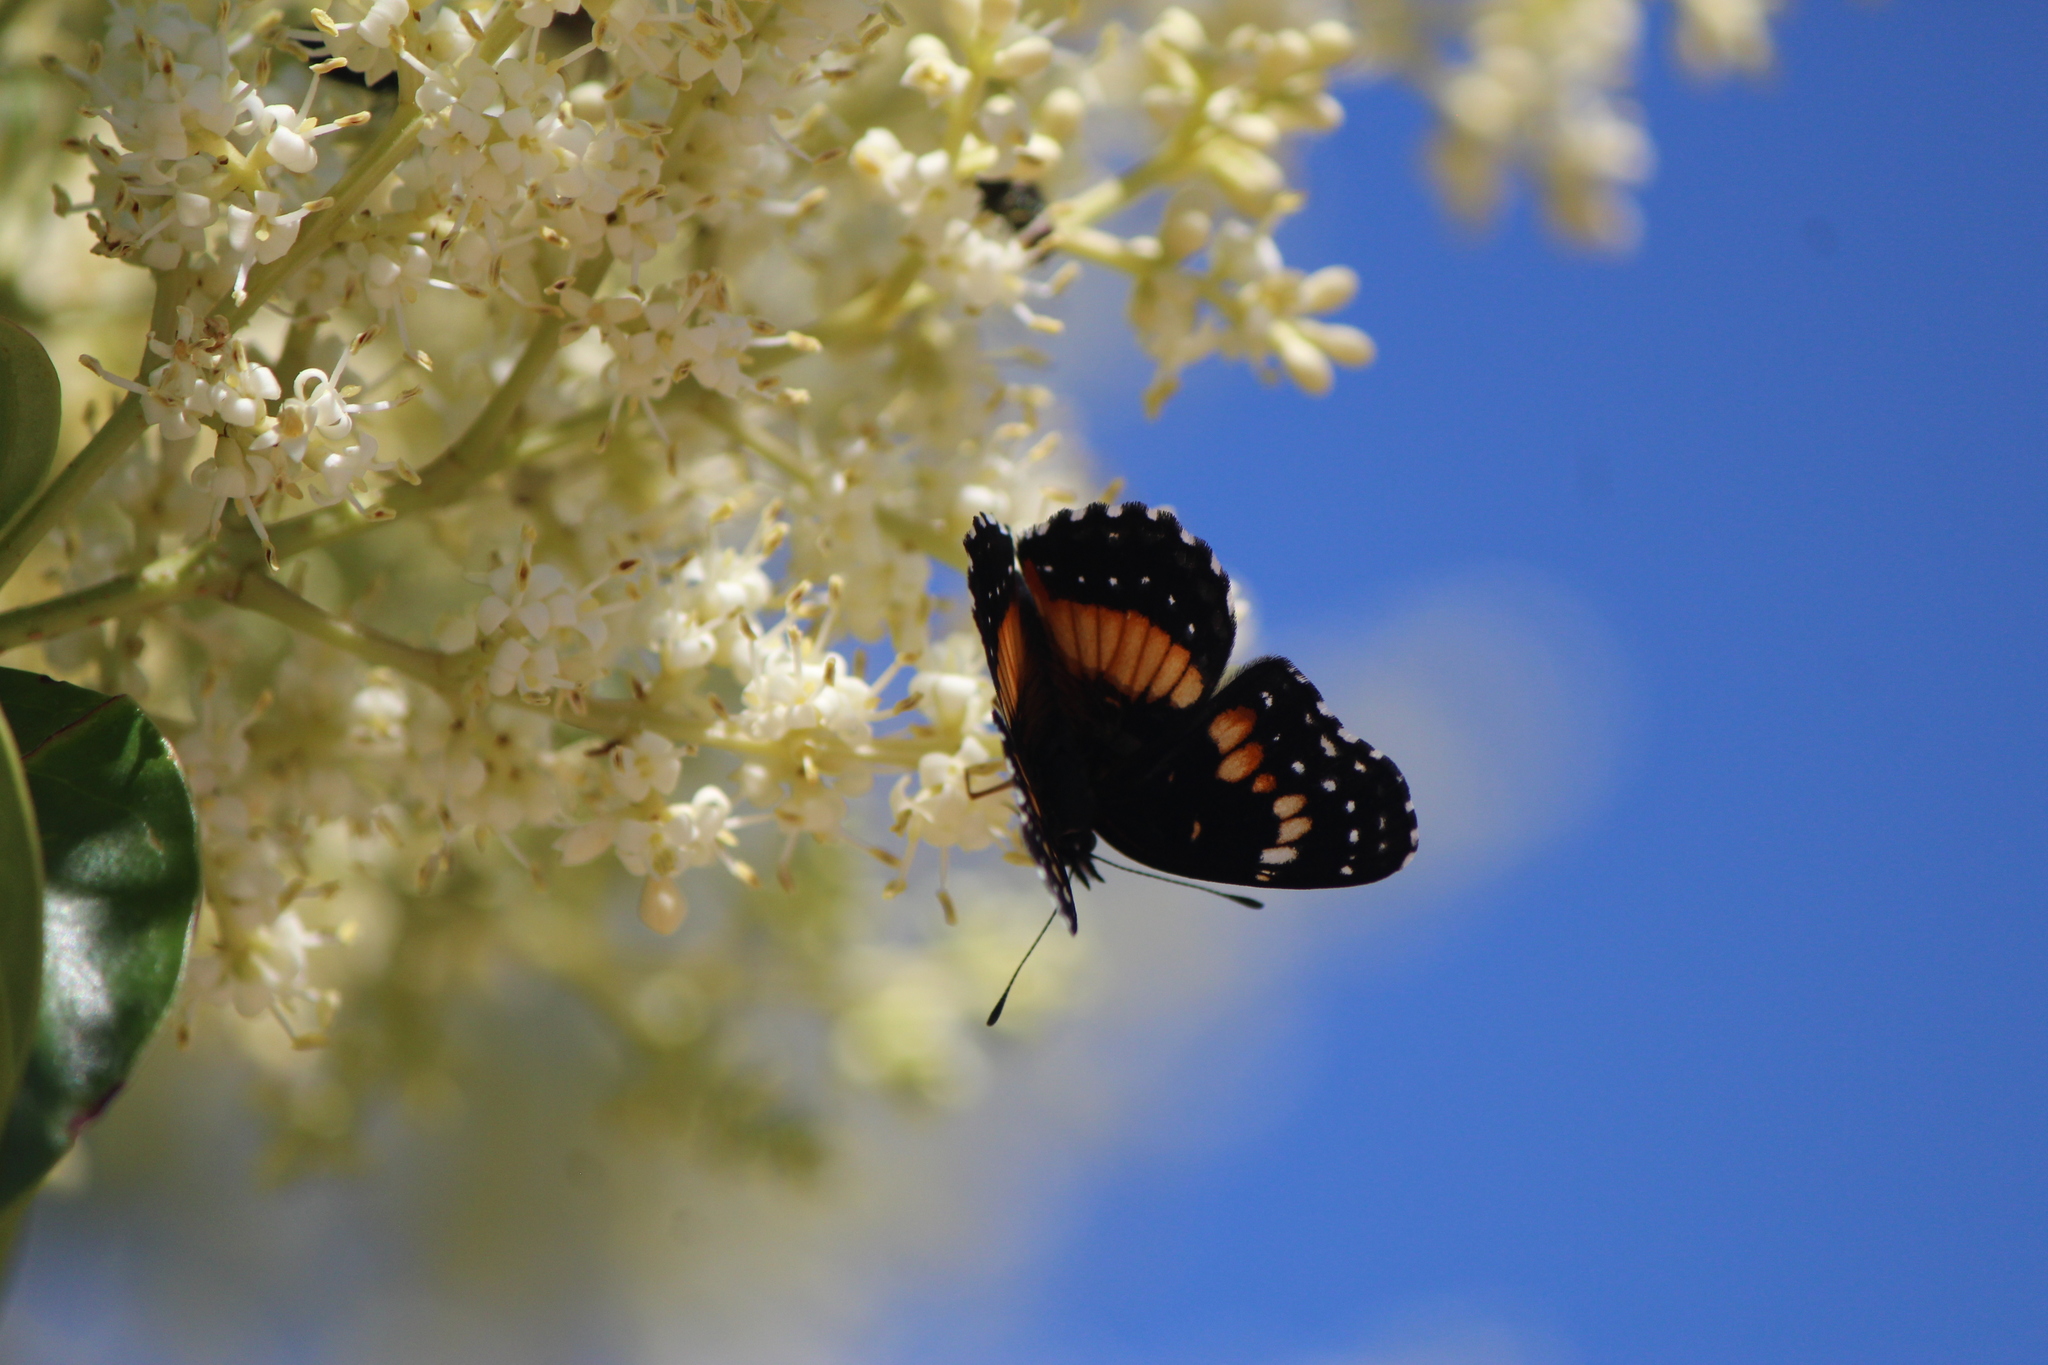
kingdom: Animalia
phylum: Arthropoda
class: Insecta
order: Lepidoptera
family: Nymphalidae
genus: Chlosyne
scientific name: Chlosyne lacinia
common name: Bordered patch
